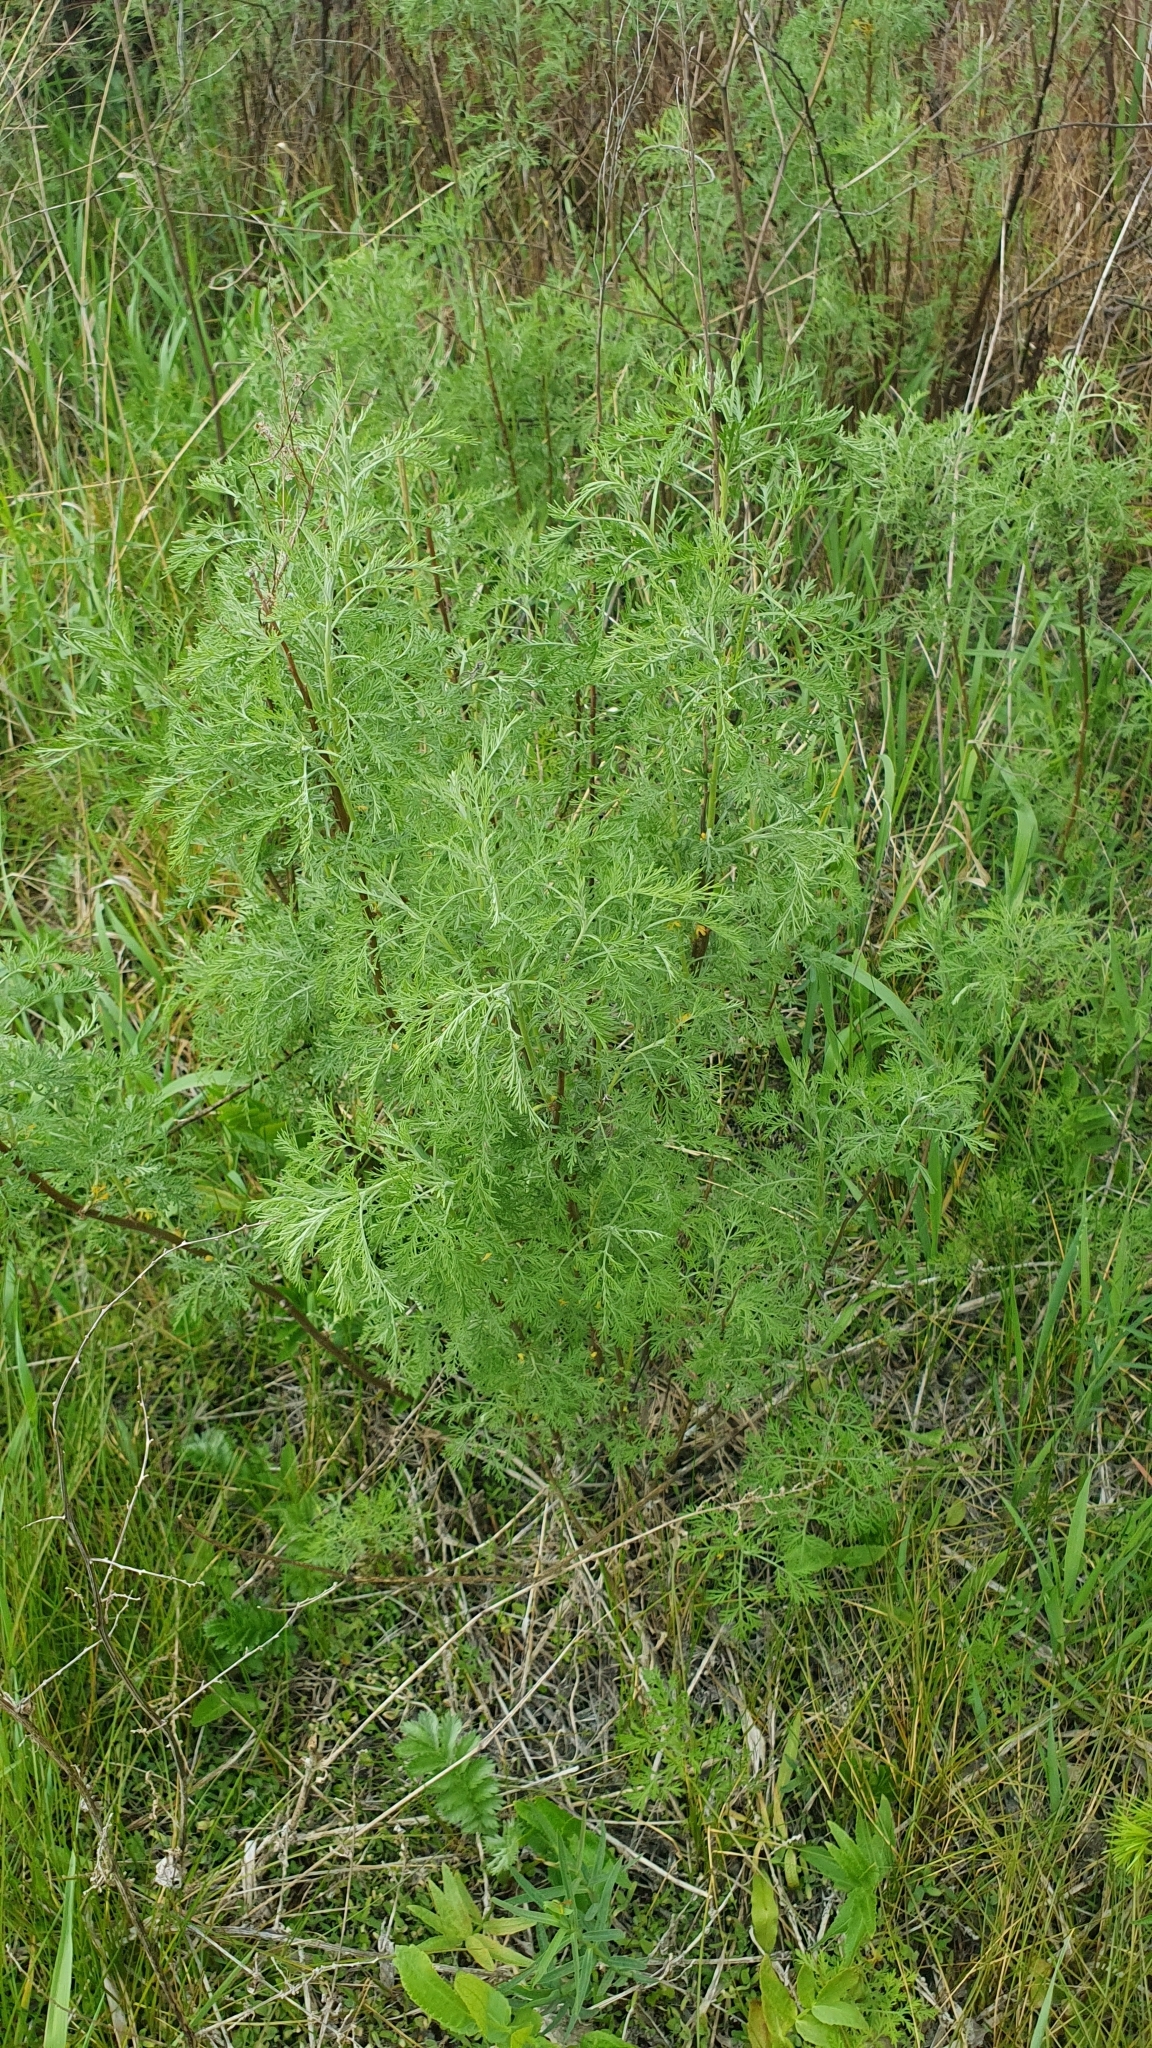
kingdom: Plantae
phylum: Tracheophyta
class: Magnoliopsida
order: Asterales
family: Asteraceae
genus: Artemisia
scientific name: Artemisia abrotanum
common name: Southernwood
